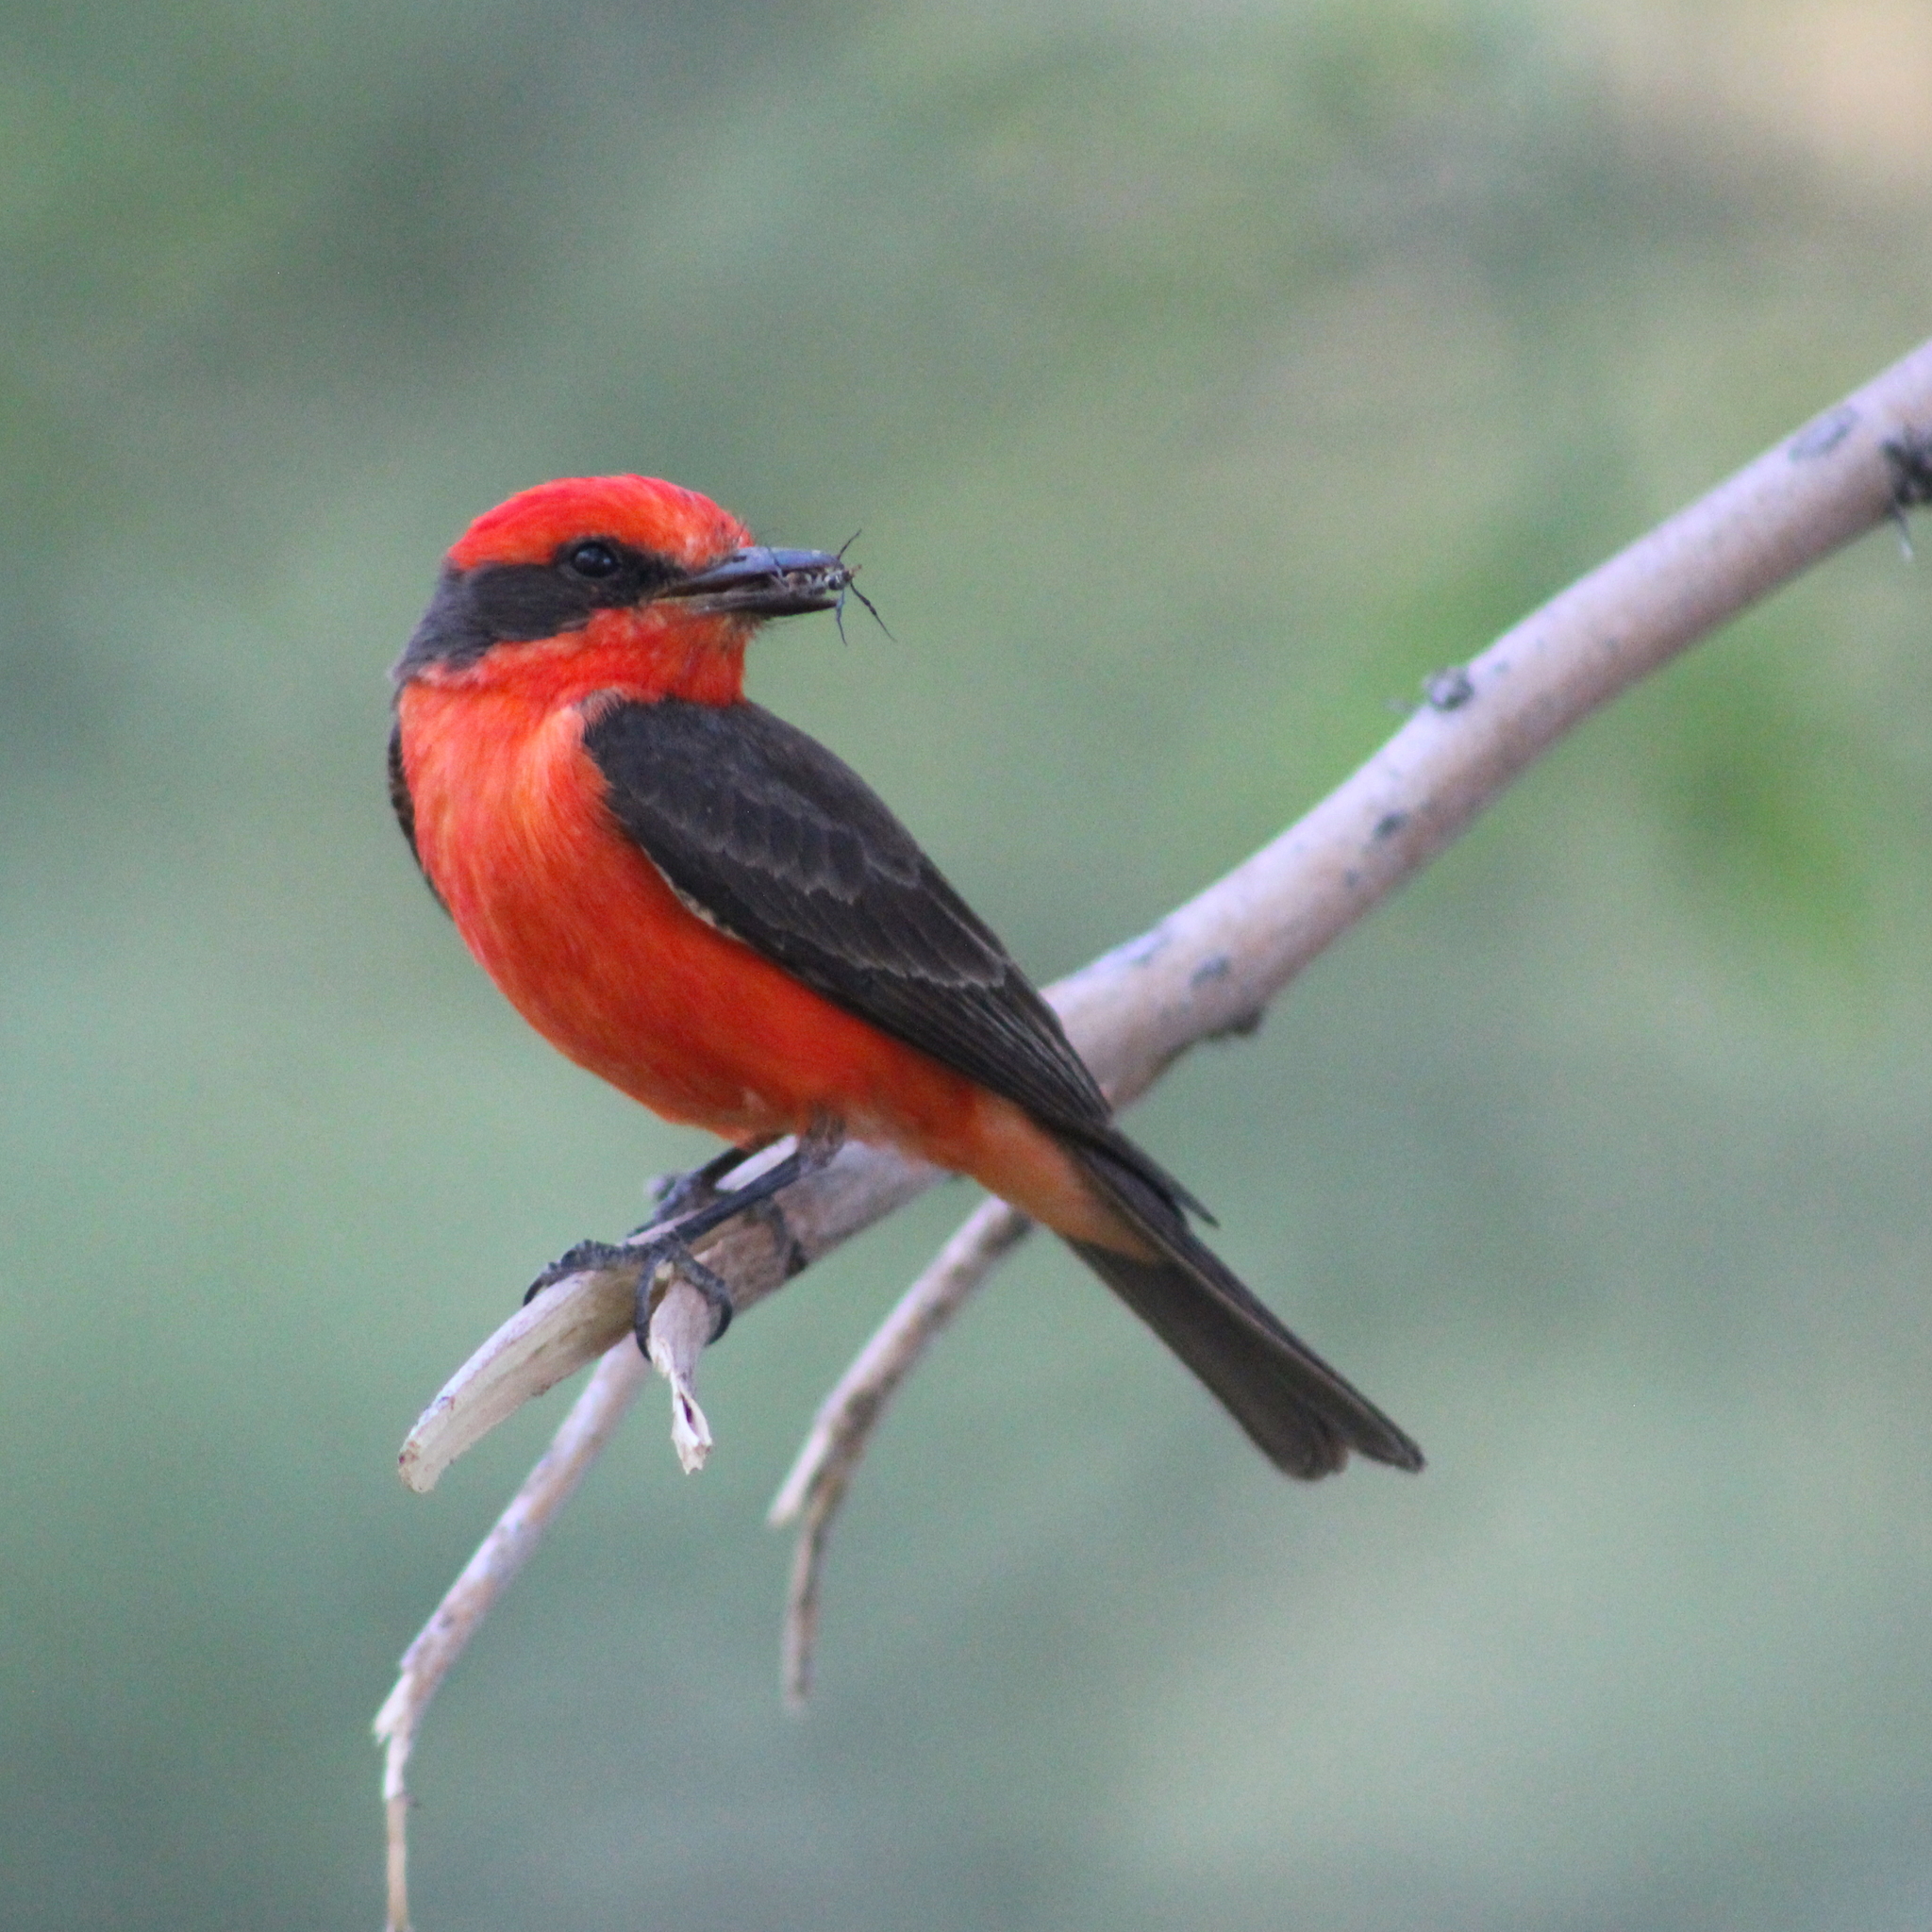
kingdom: Animalia
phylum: Chordata
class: Aves
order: Passeriformes
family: Tyrannidae
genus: Pyrocephalus
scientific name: Pyrocephalus rubinus
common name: Vermilion flycatcher
